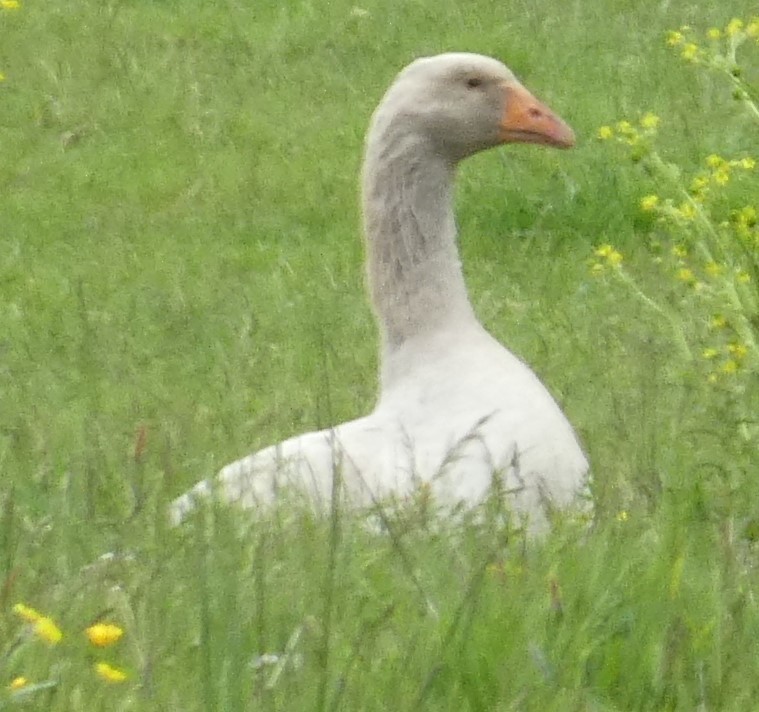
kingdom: Animalia
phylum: Chordata
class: Aves
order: Anseriformes
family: Anatidae
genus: Anser
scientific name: Anser anser
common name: Greylag goose
